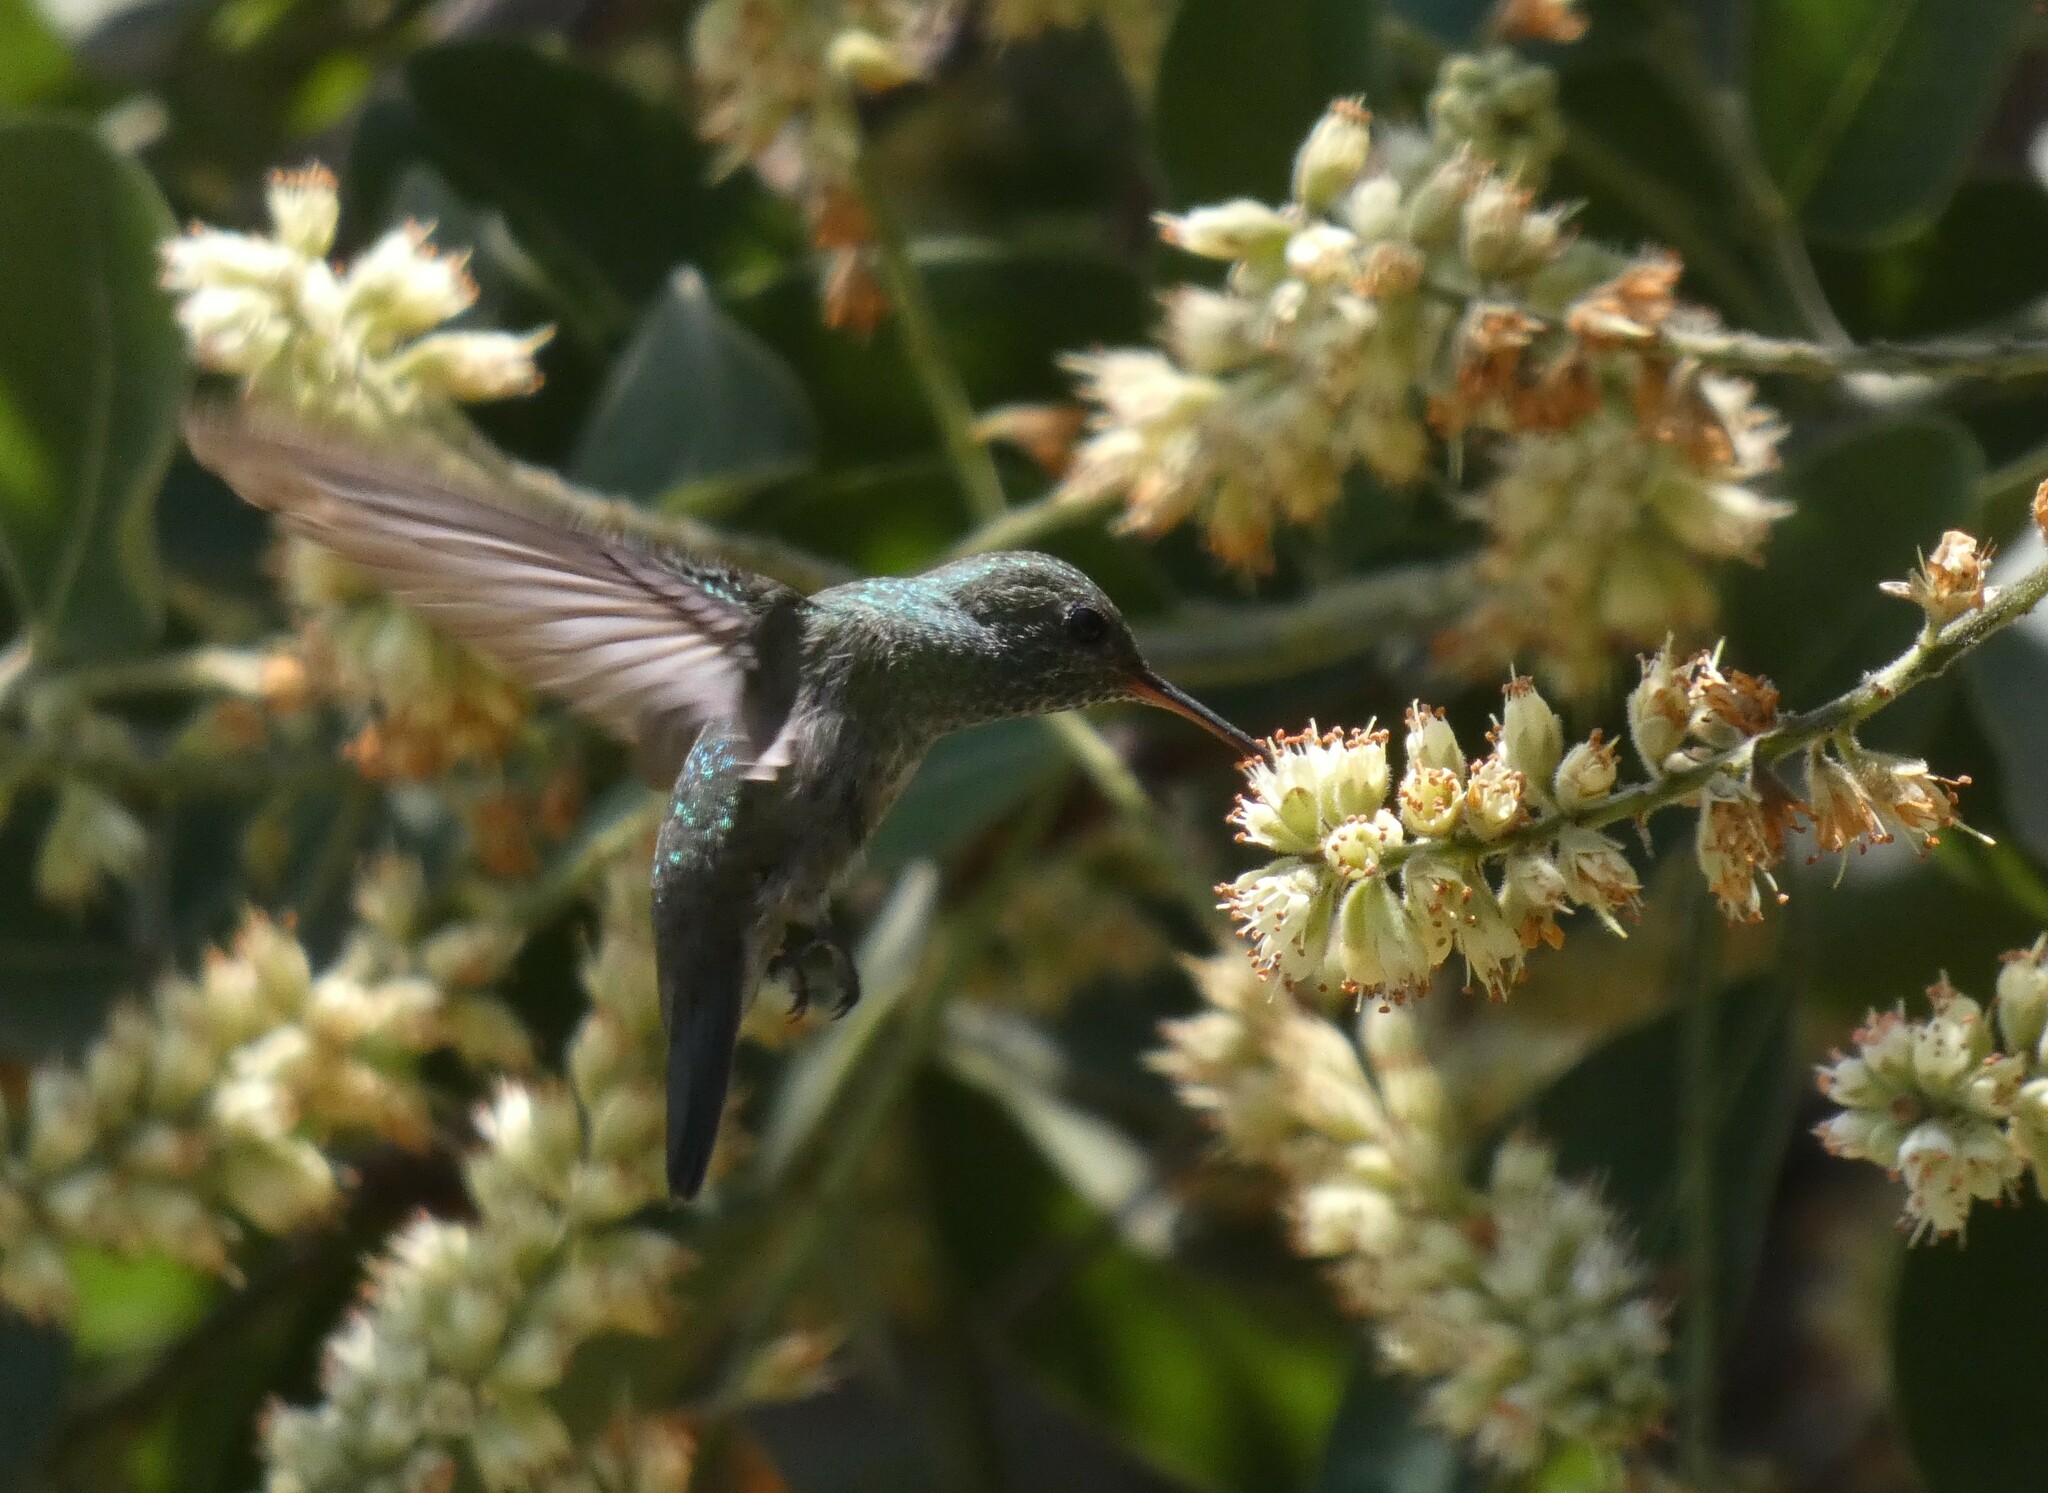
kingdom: Animalia
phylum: Chordata
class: Aves
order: Apodiformes
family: Trochilidae
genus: Chrysuronia
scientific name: Chrysuronia versicolor
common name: Versicolored emerald
